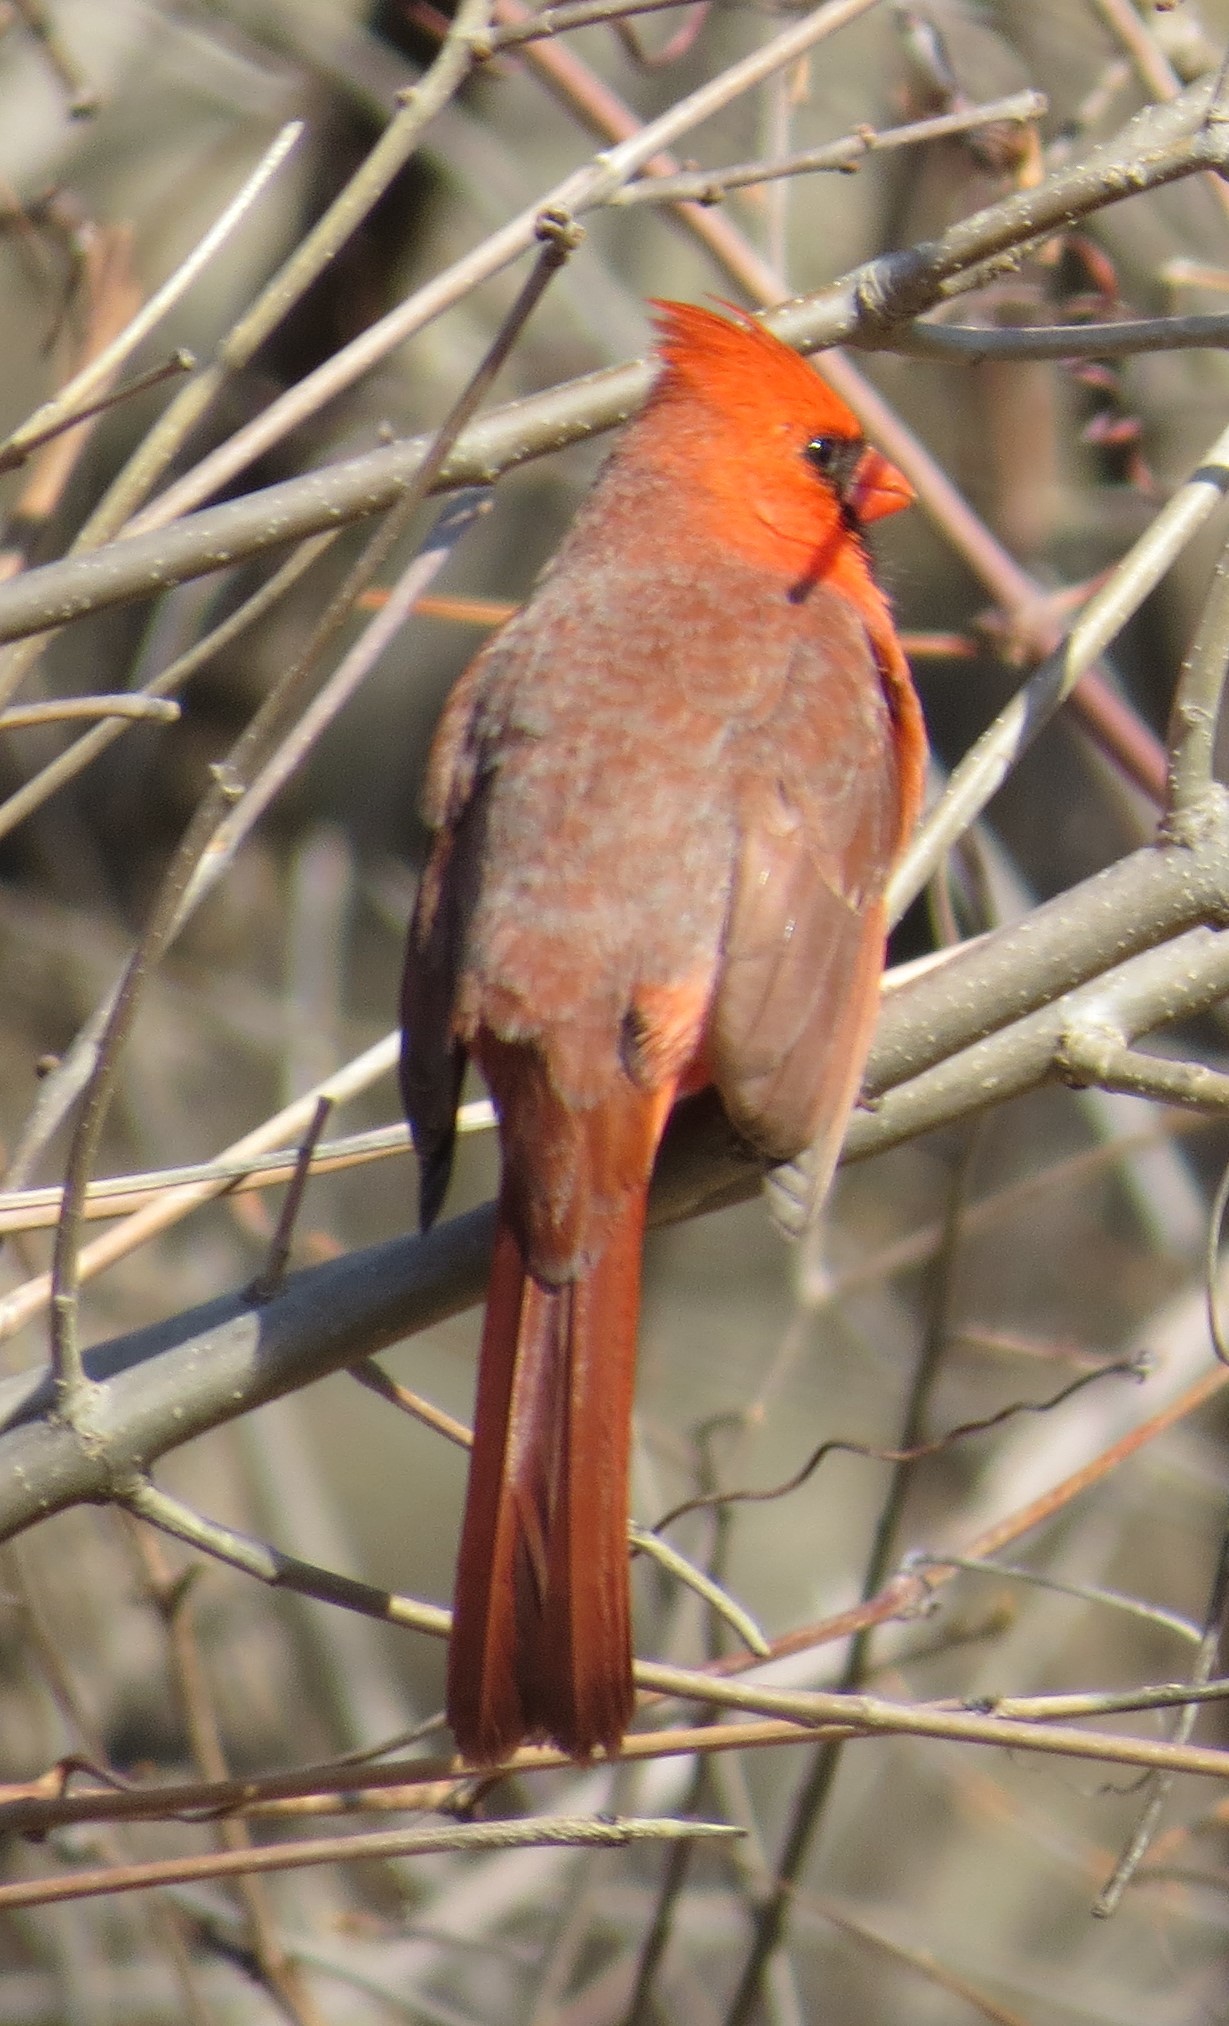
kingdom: Animalia
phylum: Chordata
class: Aves
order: Passeriformes
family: Cardinalidae
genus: Cardinalis
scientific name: Cardinalis cardinalis
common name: Northern cardinal
